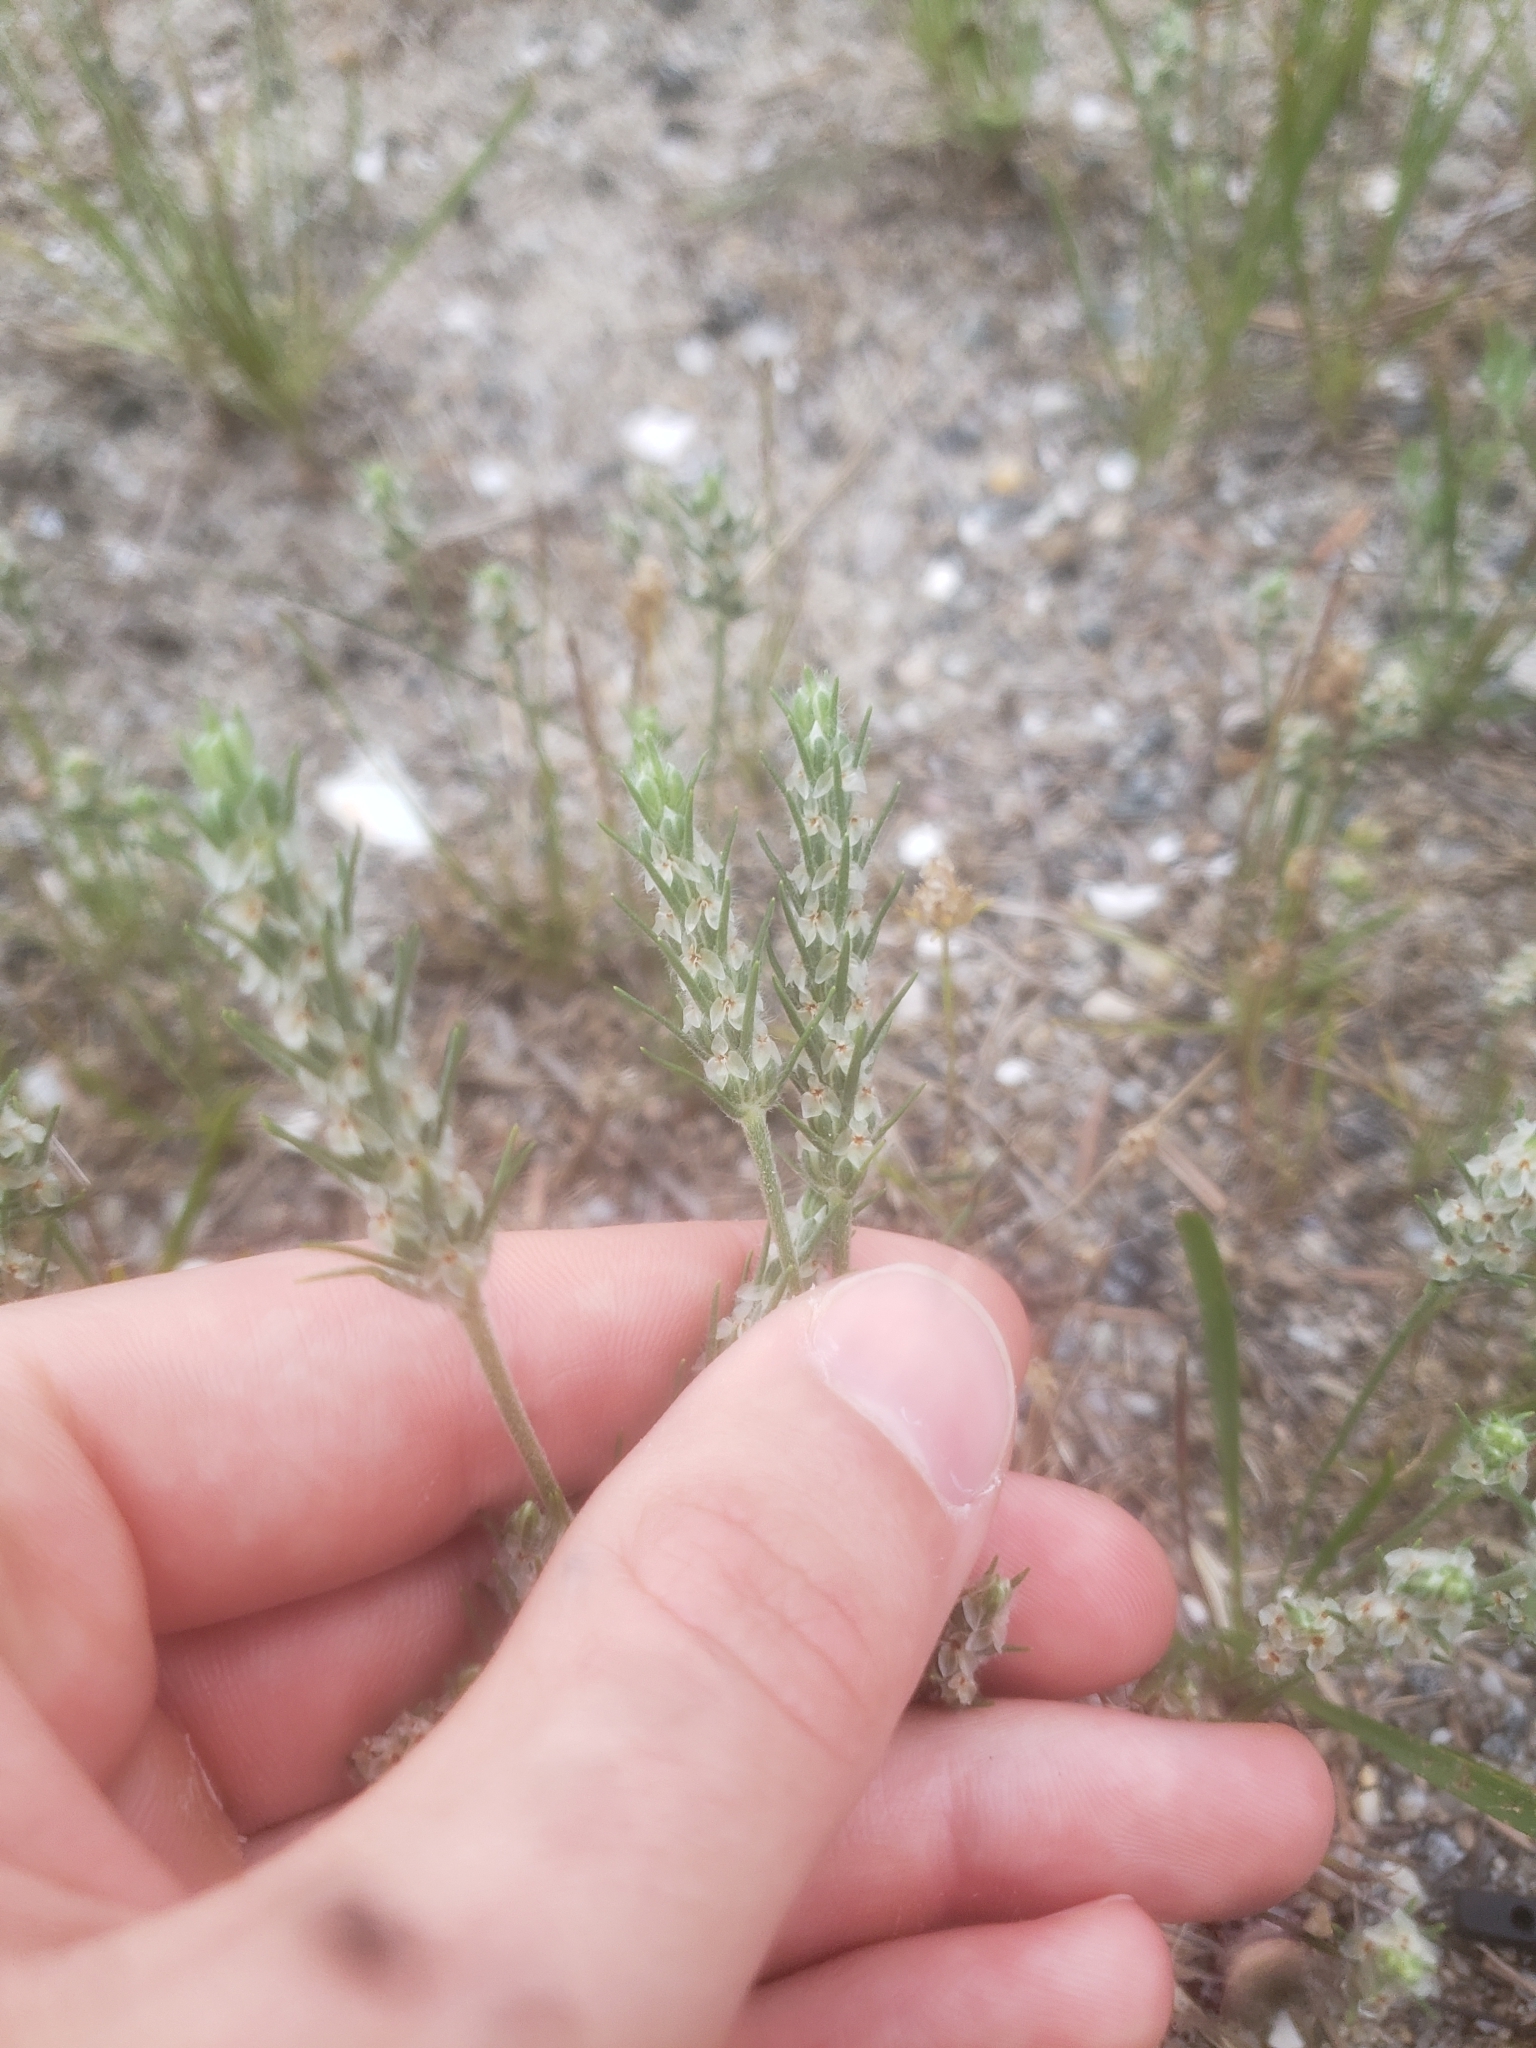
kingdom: Plantae
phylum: Tracheophyta
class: Magnoliopsida
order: Lamiales
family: Plantaginaceae
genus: Plantago
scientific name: Plantago aristata
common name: Bracted plantain
